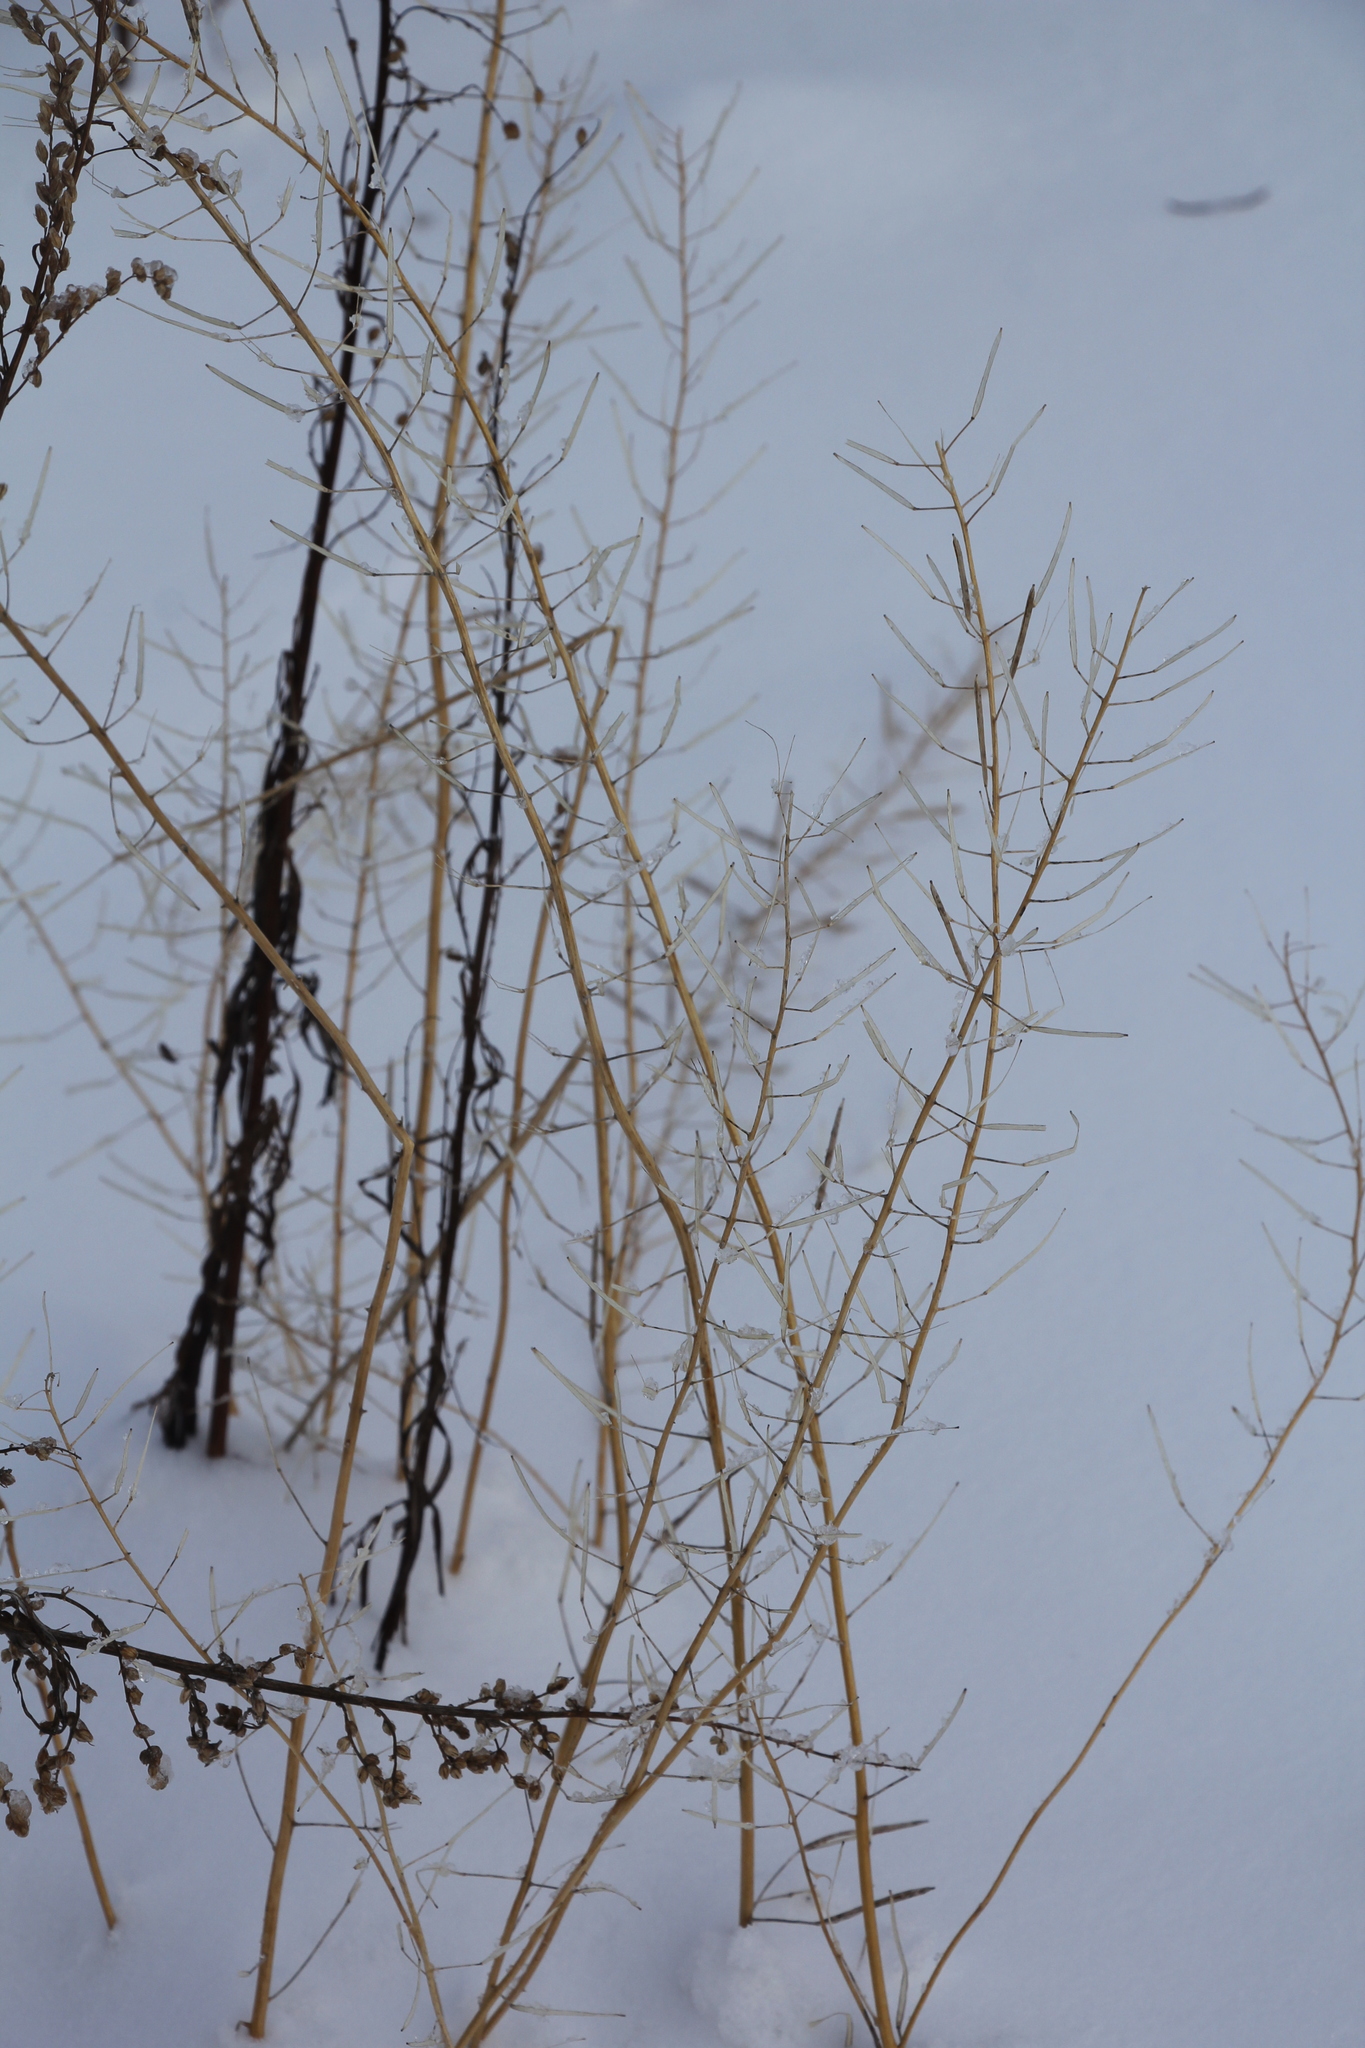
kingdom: Plantae
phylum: Tracheophyta
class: Magnoliopsida
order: Brassicales
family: Brassicaceae
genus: Erysimum
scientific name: Erysimum cheiranthoides
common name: Treacle mustard
